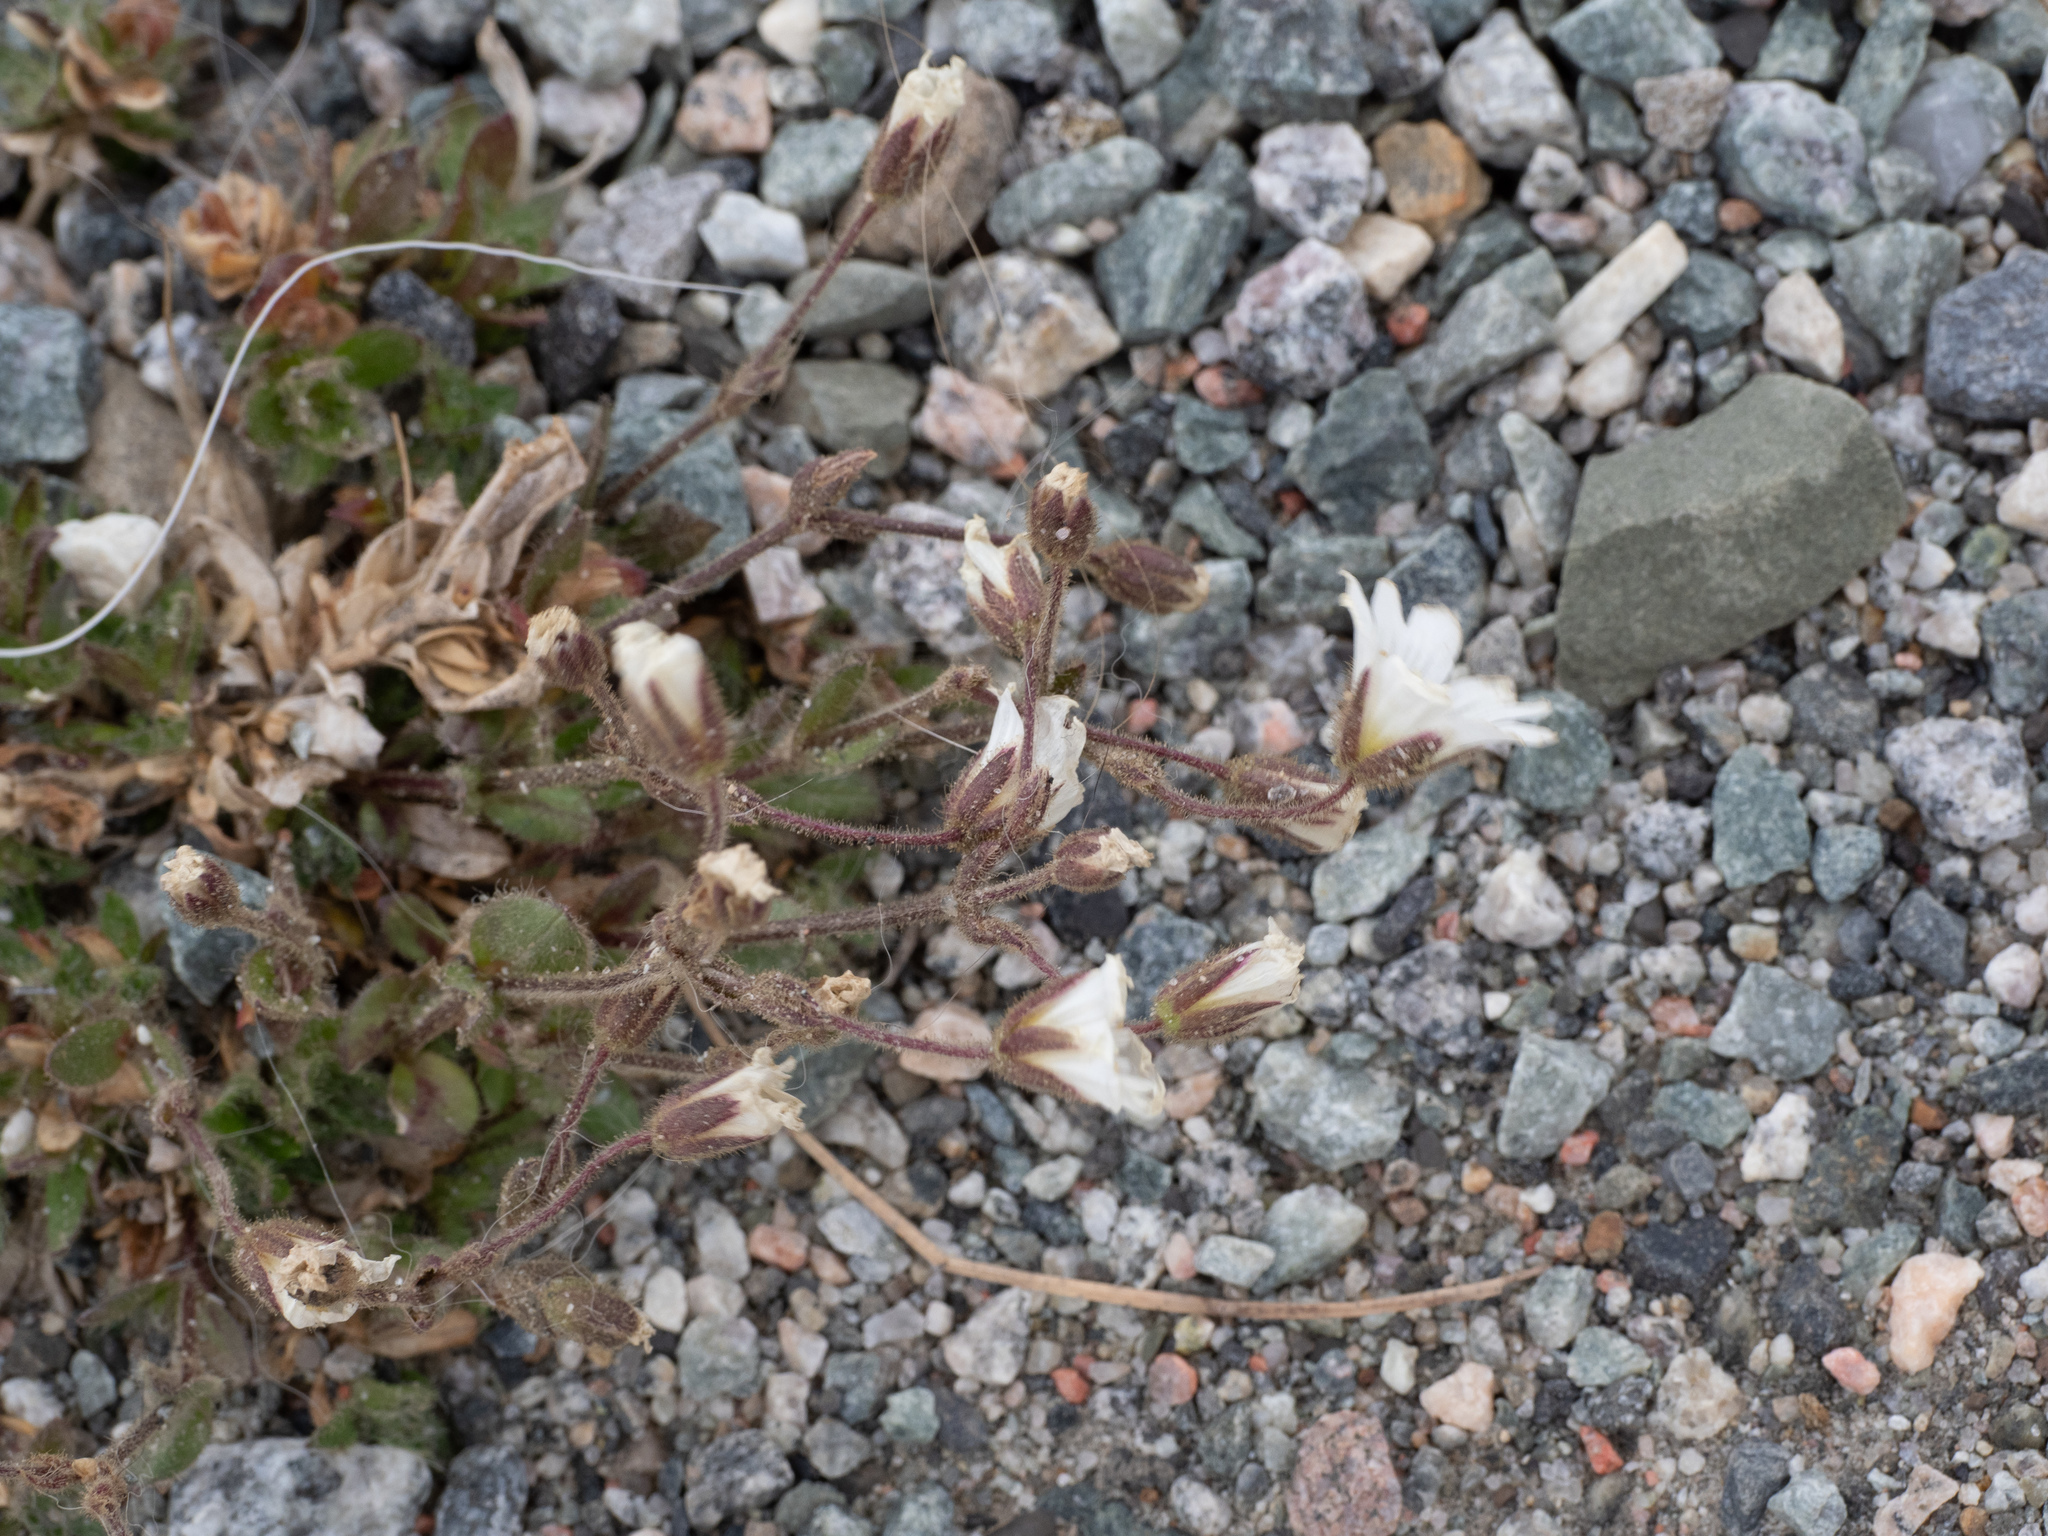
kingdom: Plantae
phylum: Tracheophyta
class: Magnoliopsida
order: Caryophyllales
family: Caryophyllaceae
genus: Cerastium
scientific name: Cerastium arcticum
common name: Arctic mouse-ear
